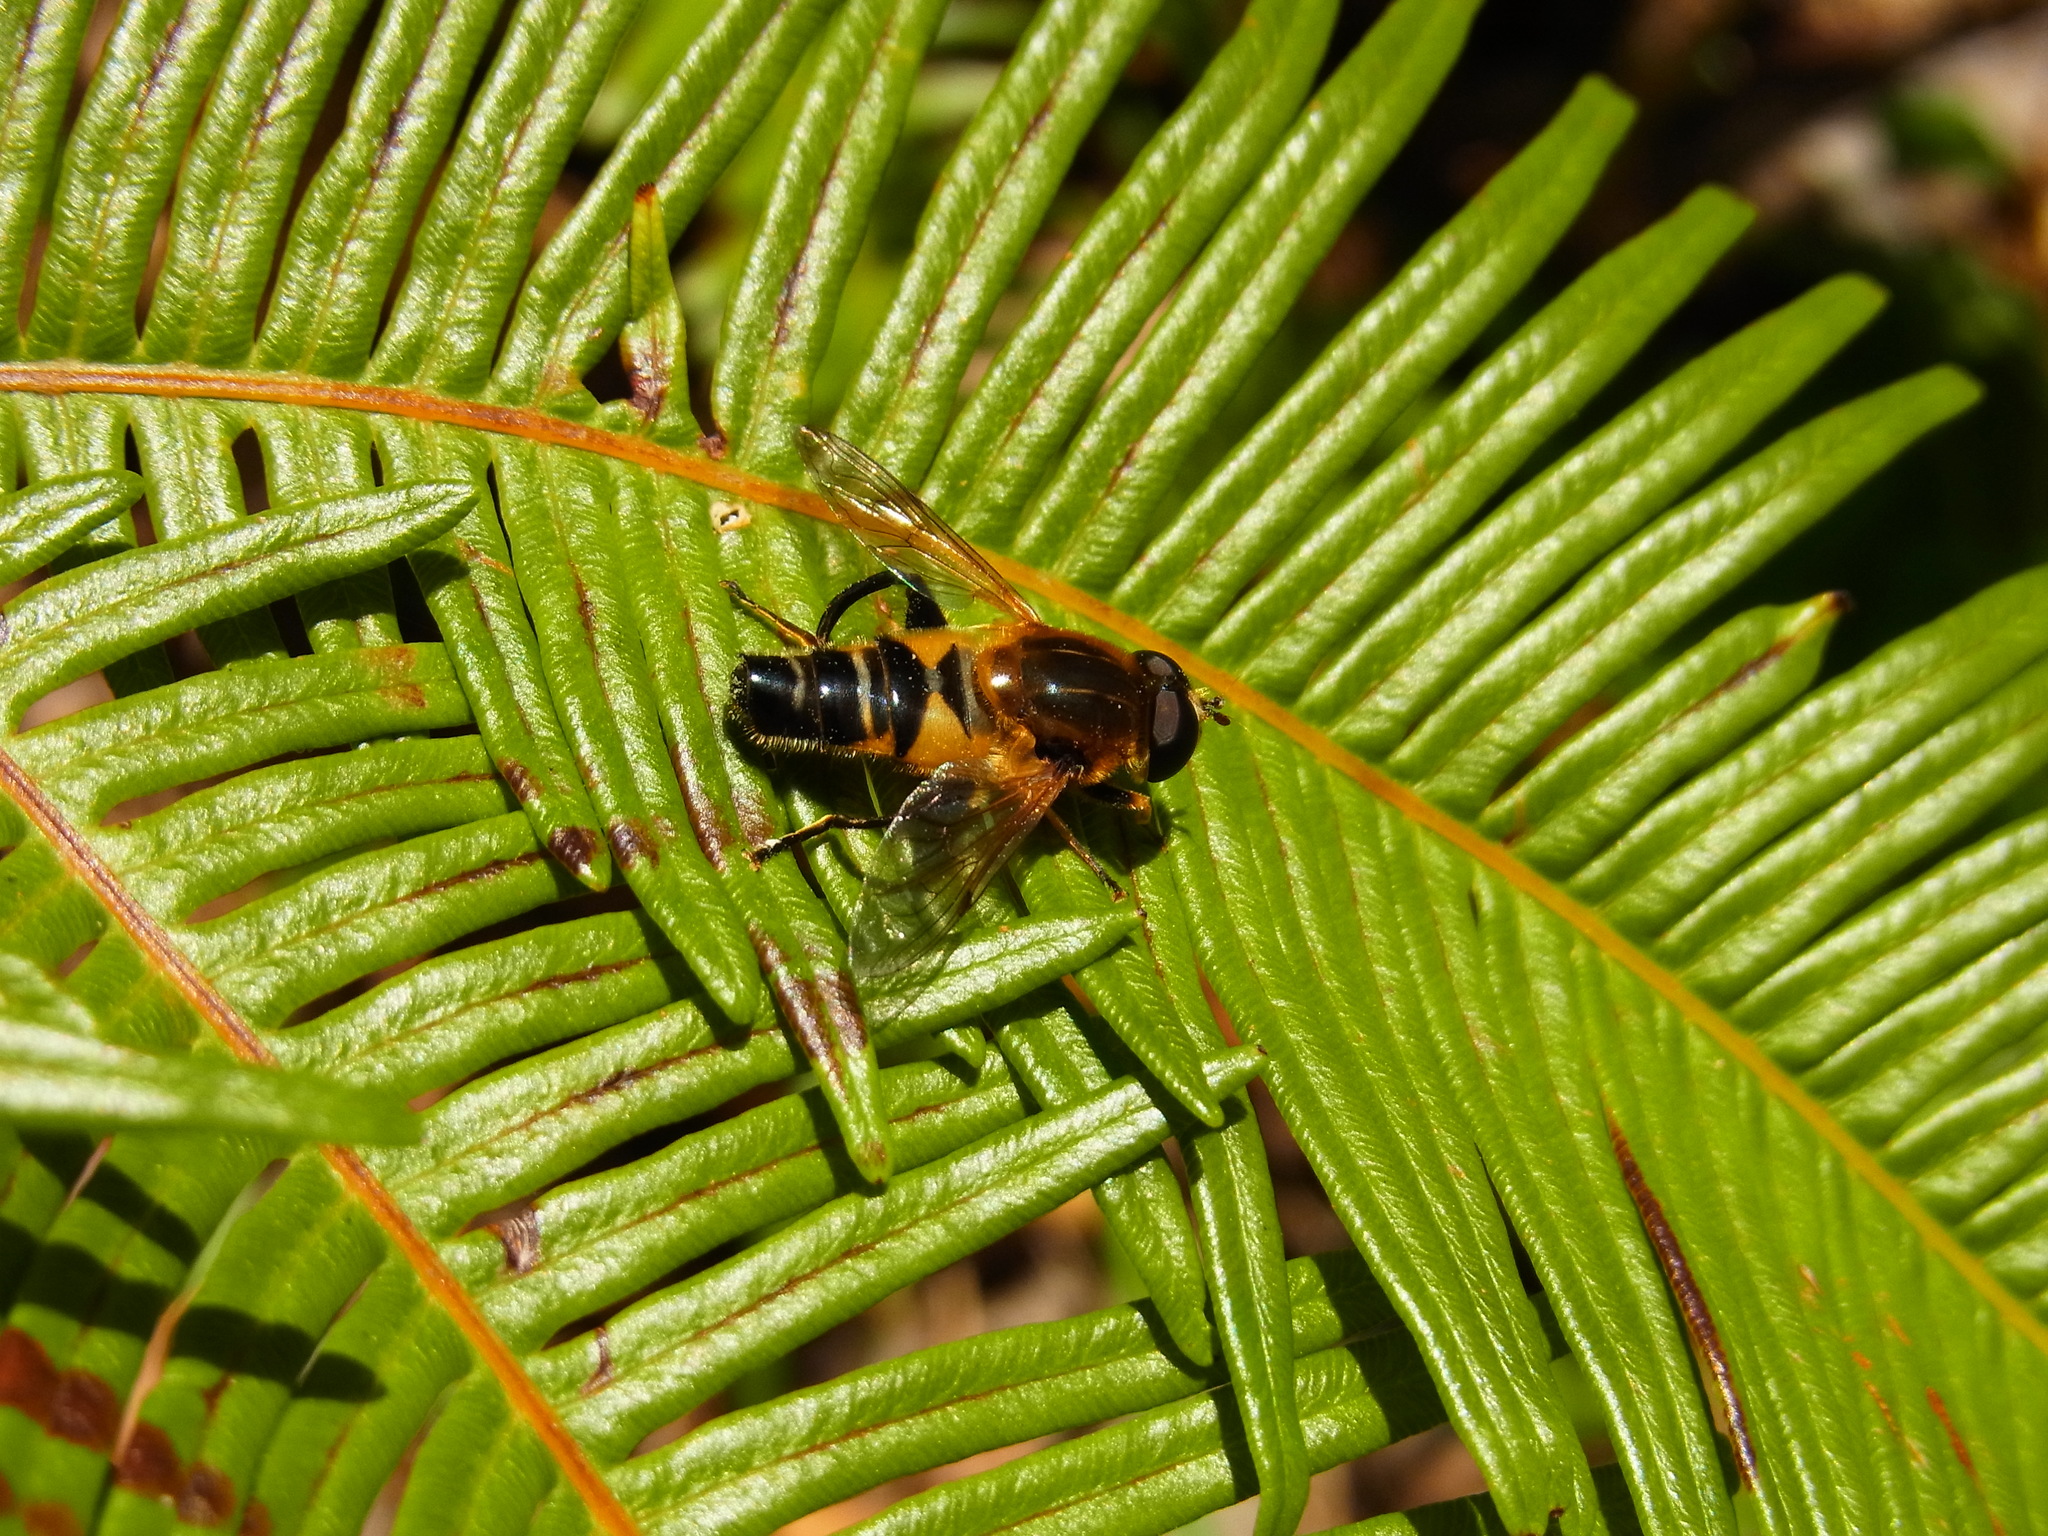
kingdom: Animalia
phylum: Arthropoda
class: Insecta
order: Diptera
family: Syrphidae
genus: Helophilus
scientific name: Helophilus eristaloideus
